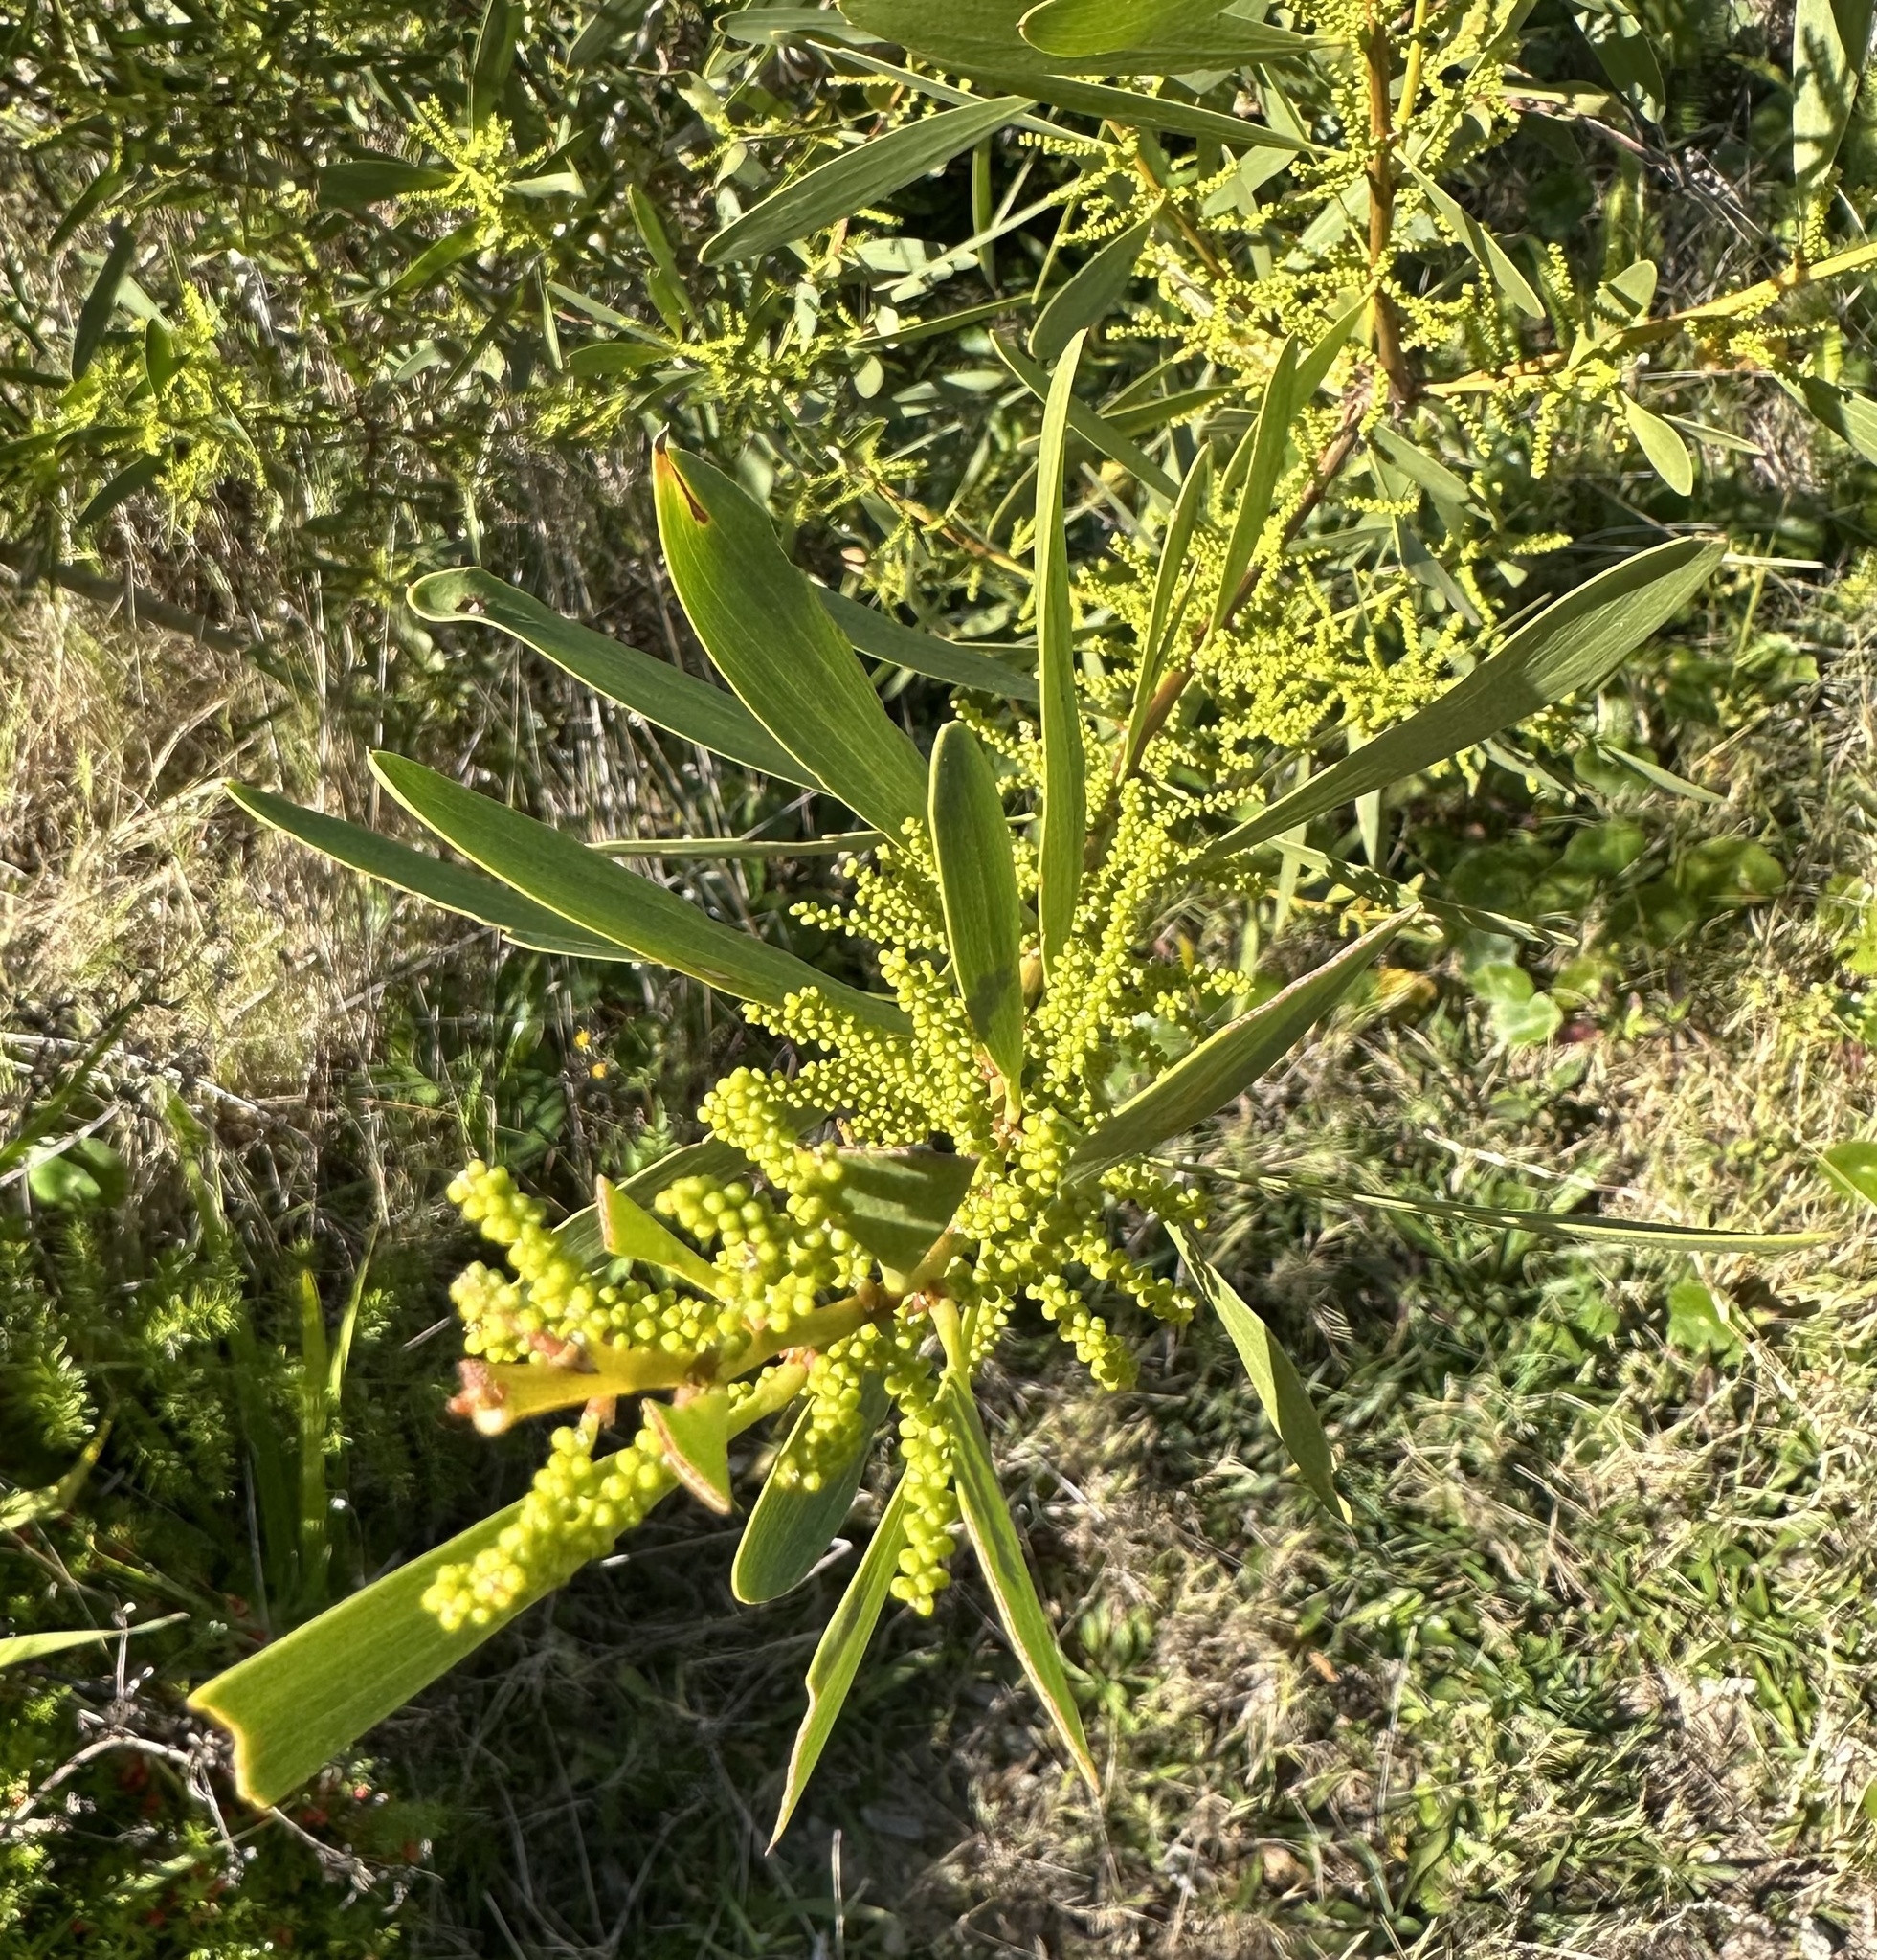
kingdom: Plantae
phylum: Tracheophyta
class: Magnoliopsida
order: Fabales
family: Fabaceae
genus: Acacia
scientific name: Acacia longifolia
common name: Sydney golden wattle
